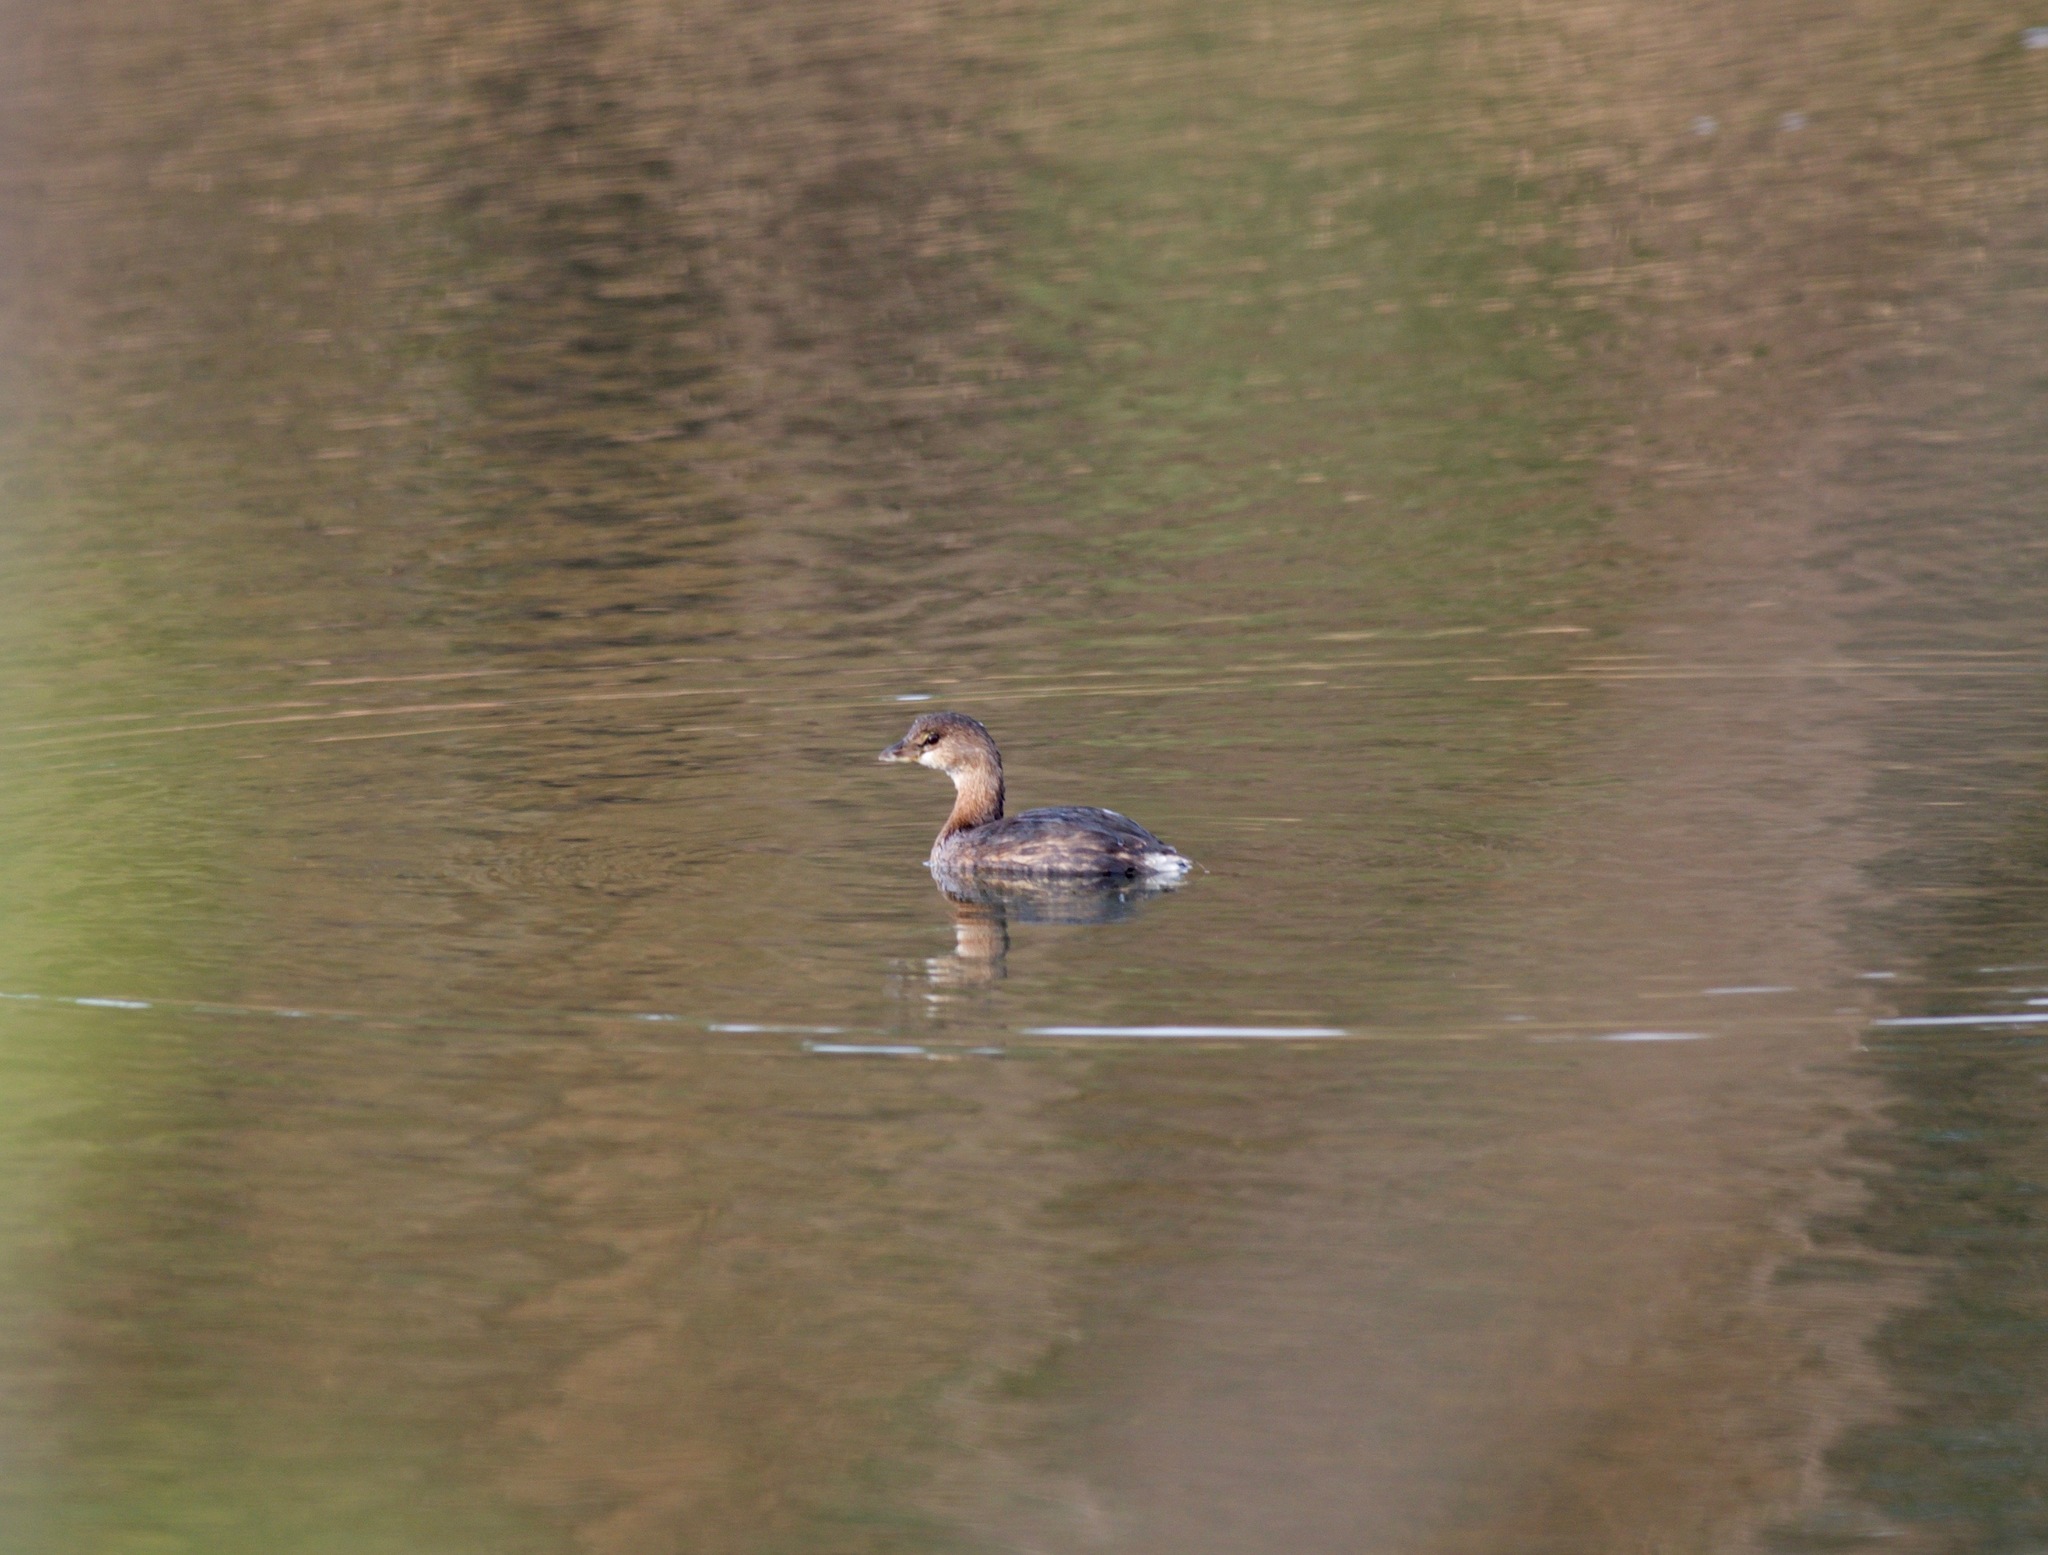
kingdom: Animalia
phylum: Chordata
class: Aves
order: Podicipediformes
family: Podicipedidae
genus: Podilymbus
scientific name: Podilymbus podiceps
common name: Pied-billed grebe
